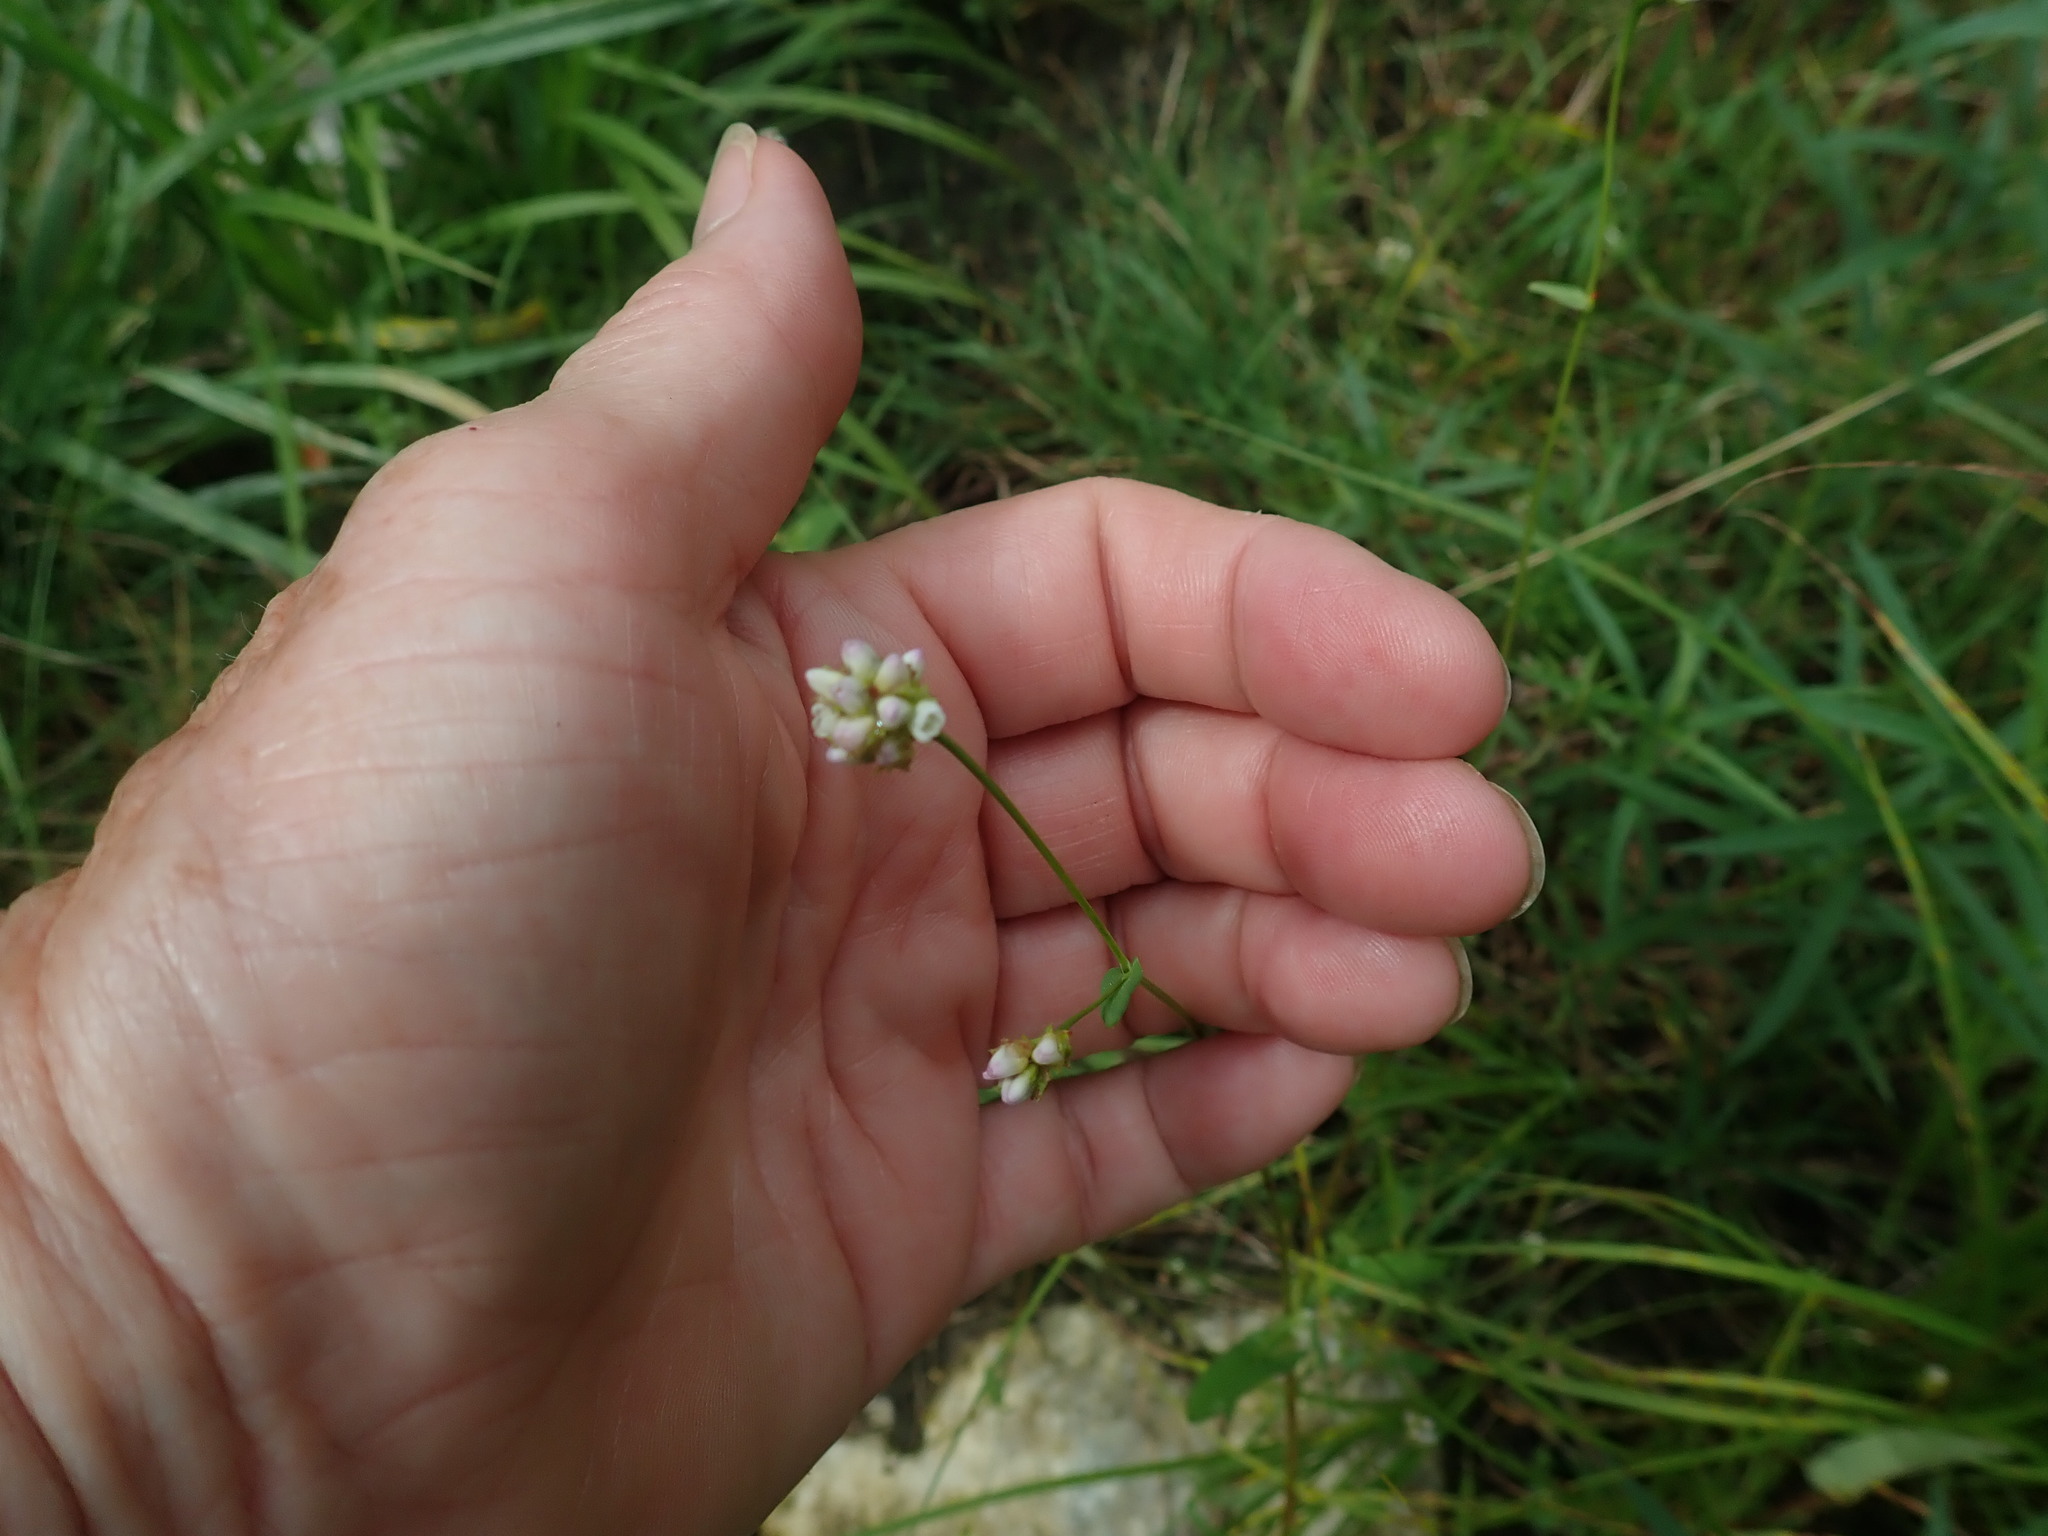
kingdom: Plantae
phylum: Tracheophyta
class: Magnoliopsida
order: Caryophyllales
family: Polygonaceae
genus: Persicaria
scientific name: Persicaria sagittata
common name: American tearthumb
